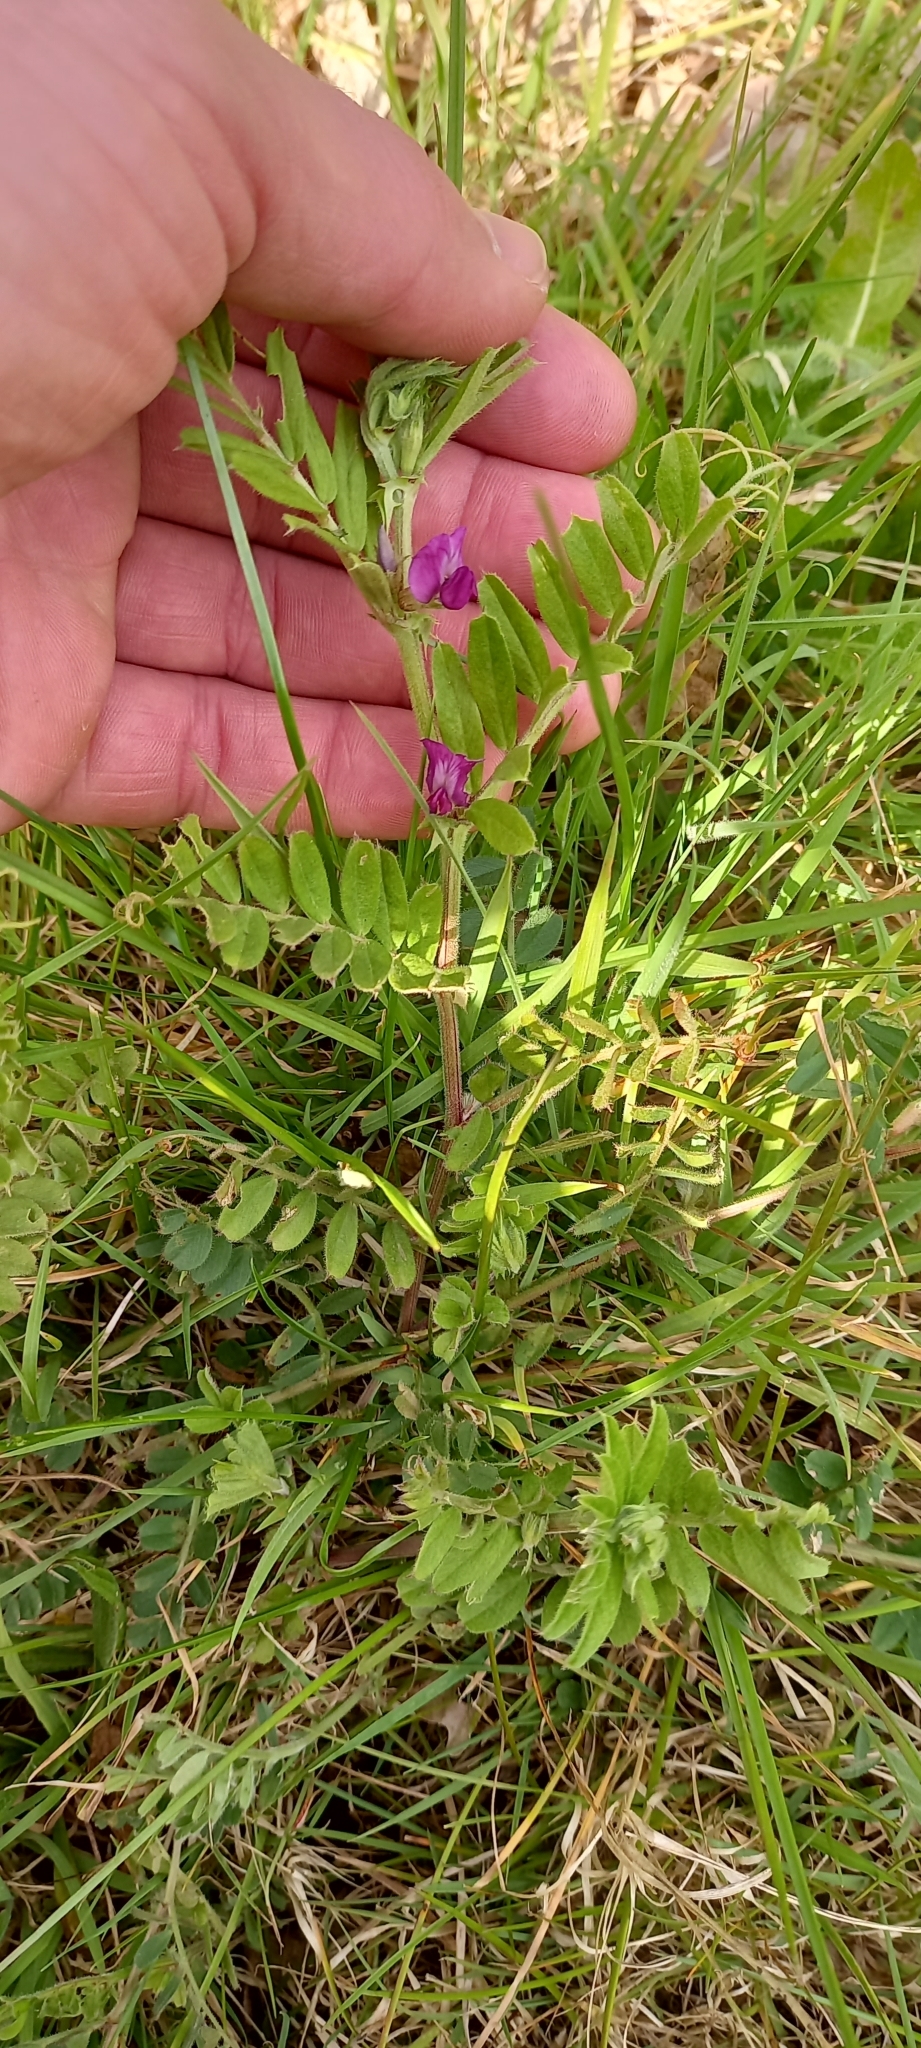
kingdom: Plantae
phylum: Tracheophyta
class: Magnoliopsida
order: Fabales
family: Fabaceae
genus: Vicia
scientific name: Vicia sativa
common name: Garden vetch
